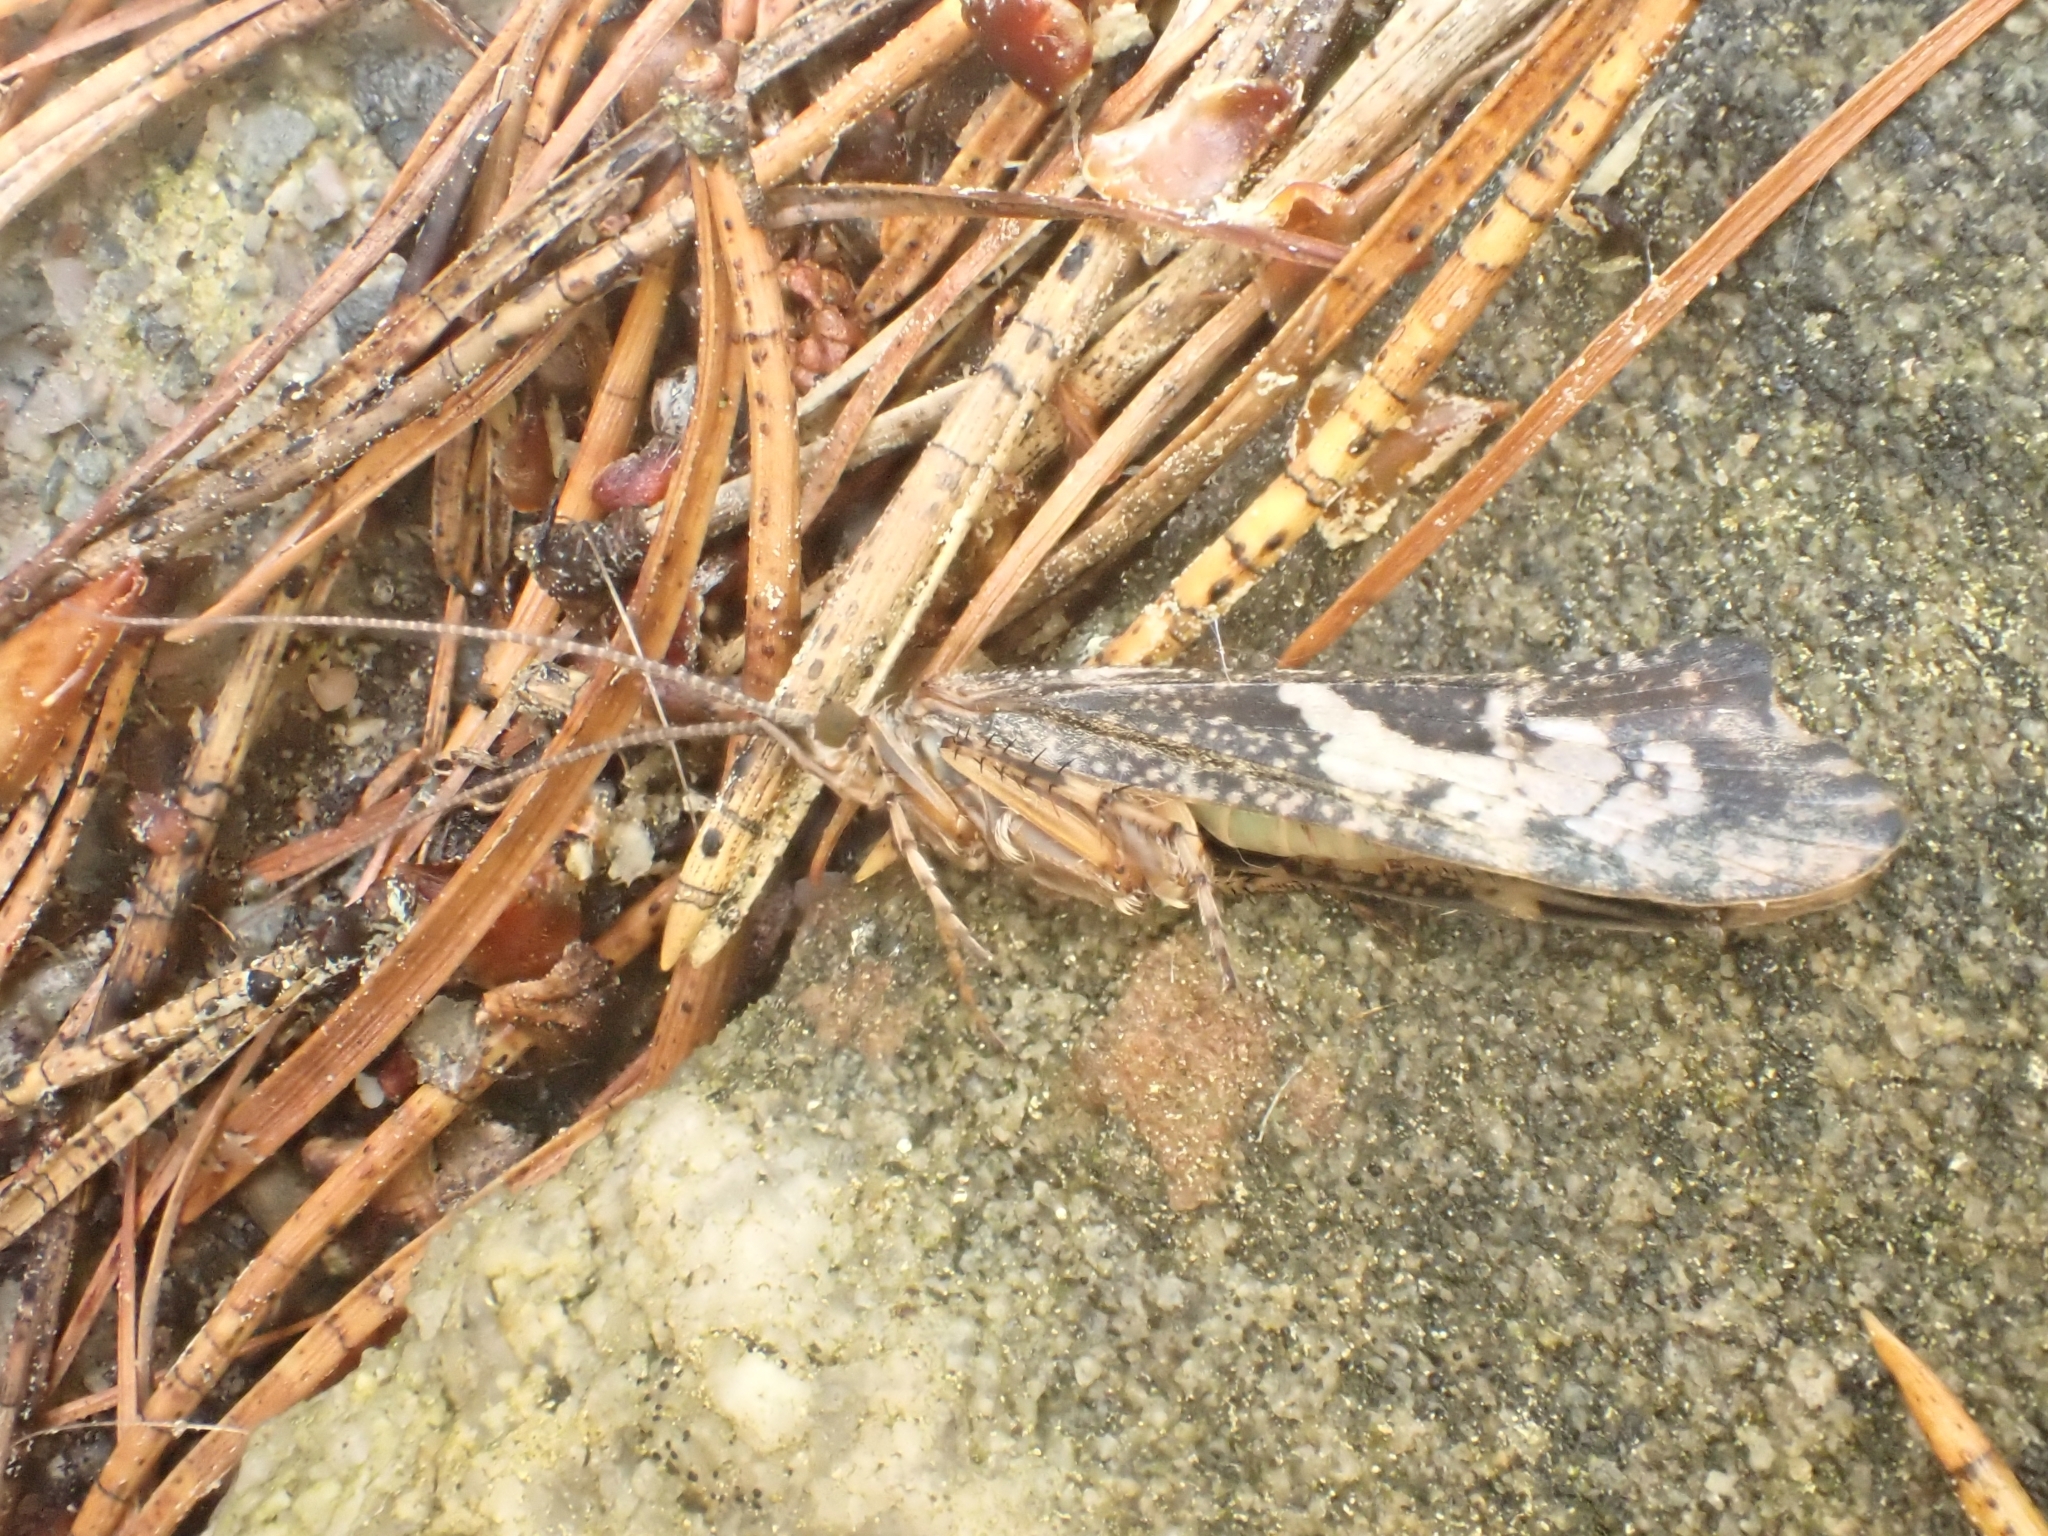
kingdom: Animalia
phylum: Arthropoda
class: Insecta
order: Trichoptera
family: Limnephilidae
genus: Glyphotaelius
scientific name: Glyphotaelius pellucidus
